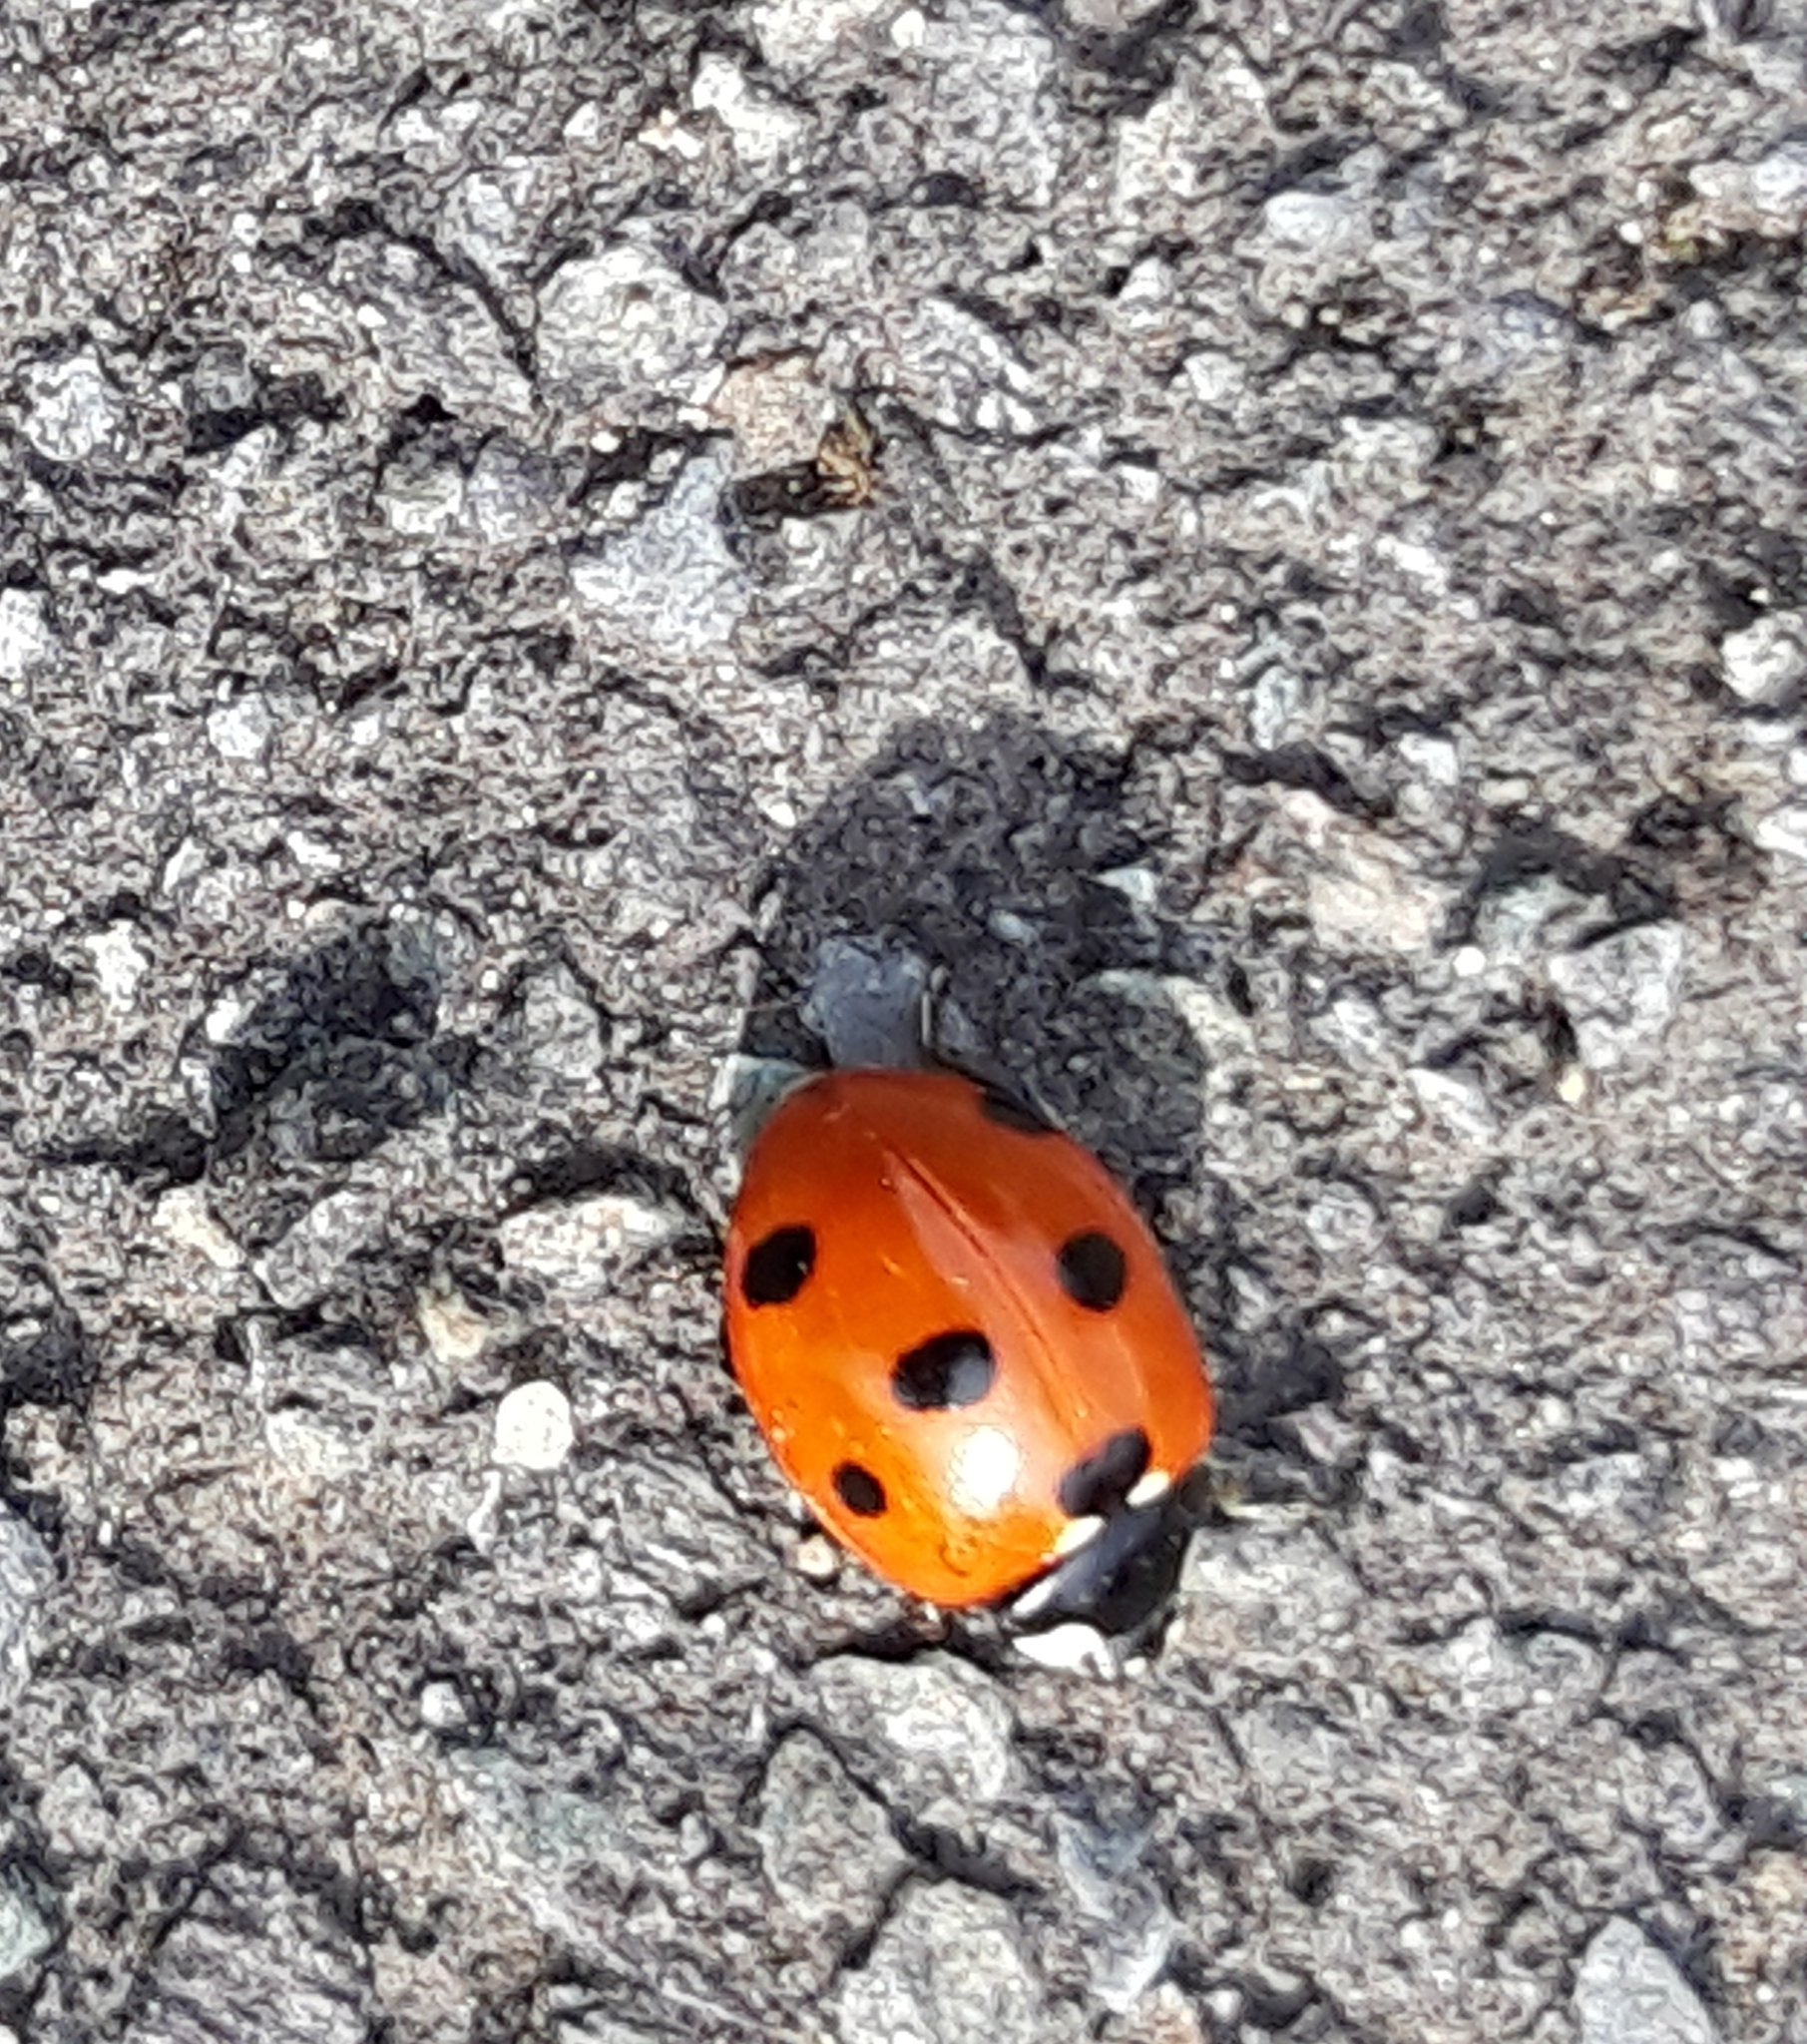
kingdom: Animalia
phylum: Arthropoda
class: Insecta
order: Coleoptera
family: Coccinellidae
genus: Coccinella
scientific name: Coccinella septempunctata
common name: Sevenspotted lady beetle
